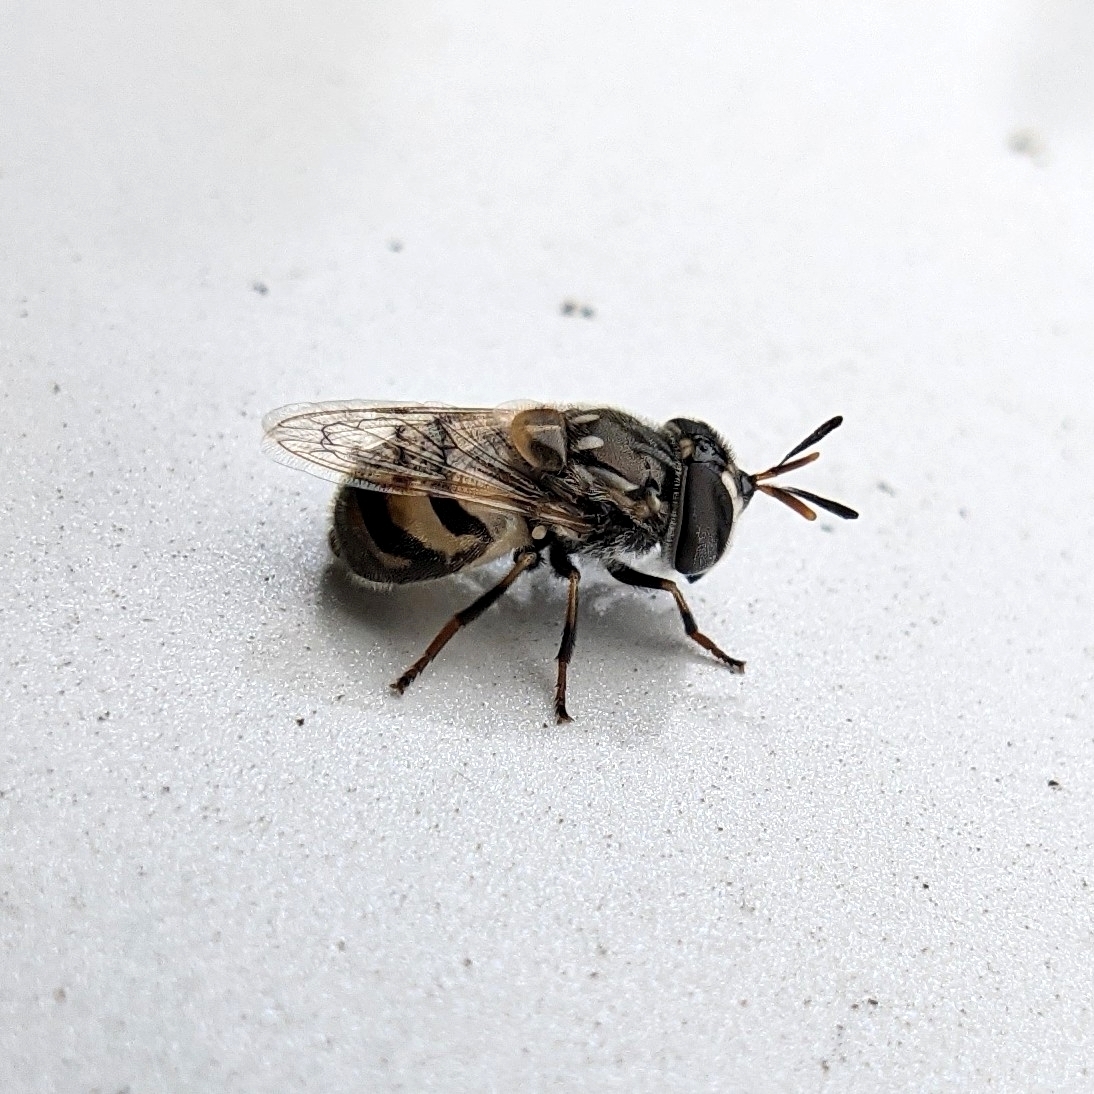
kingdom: Animalia
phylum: Arthropoda
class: Insecta
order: Diptera
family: Syrphidae
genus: Copestylum
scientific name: Copestylum marginatum
